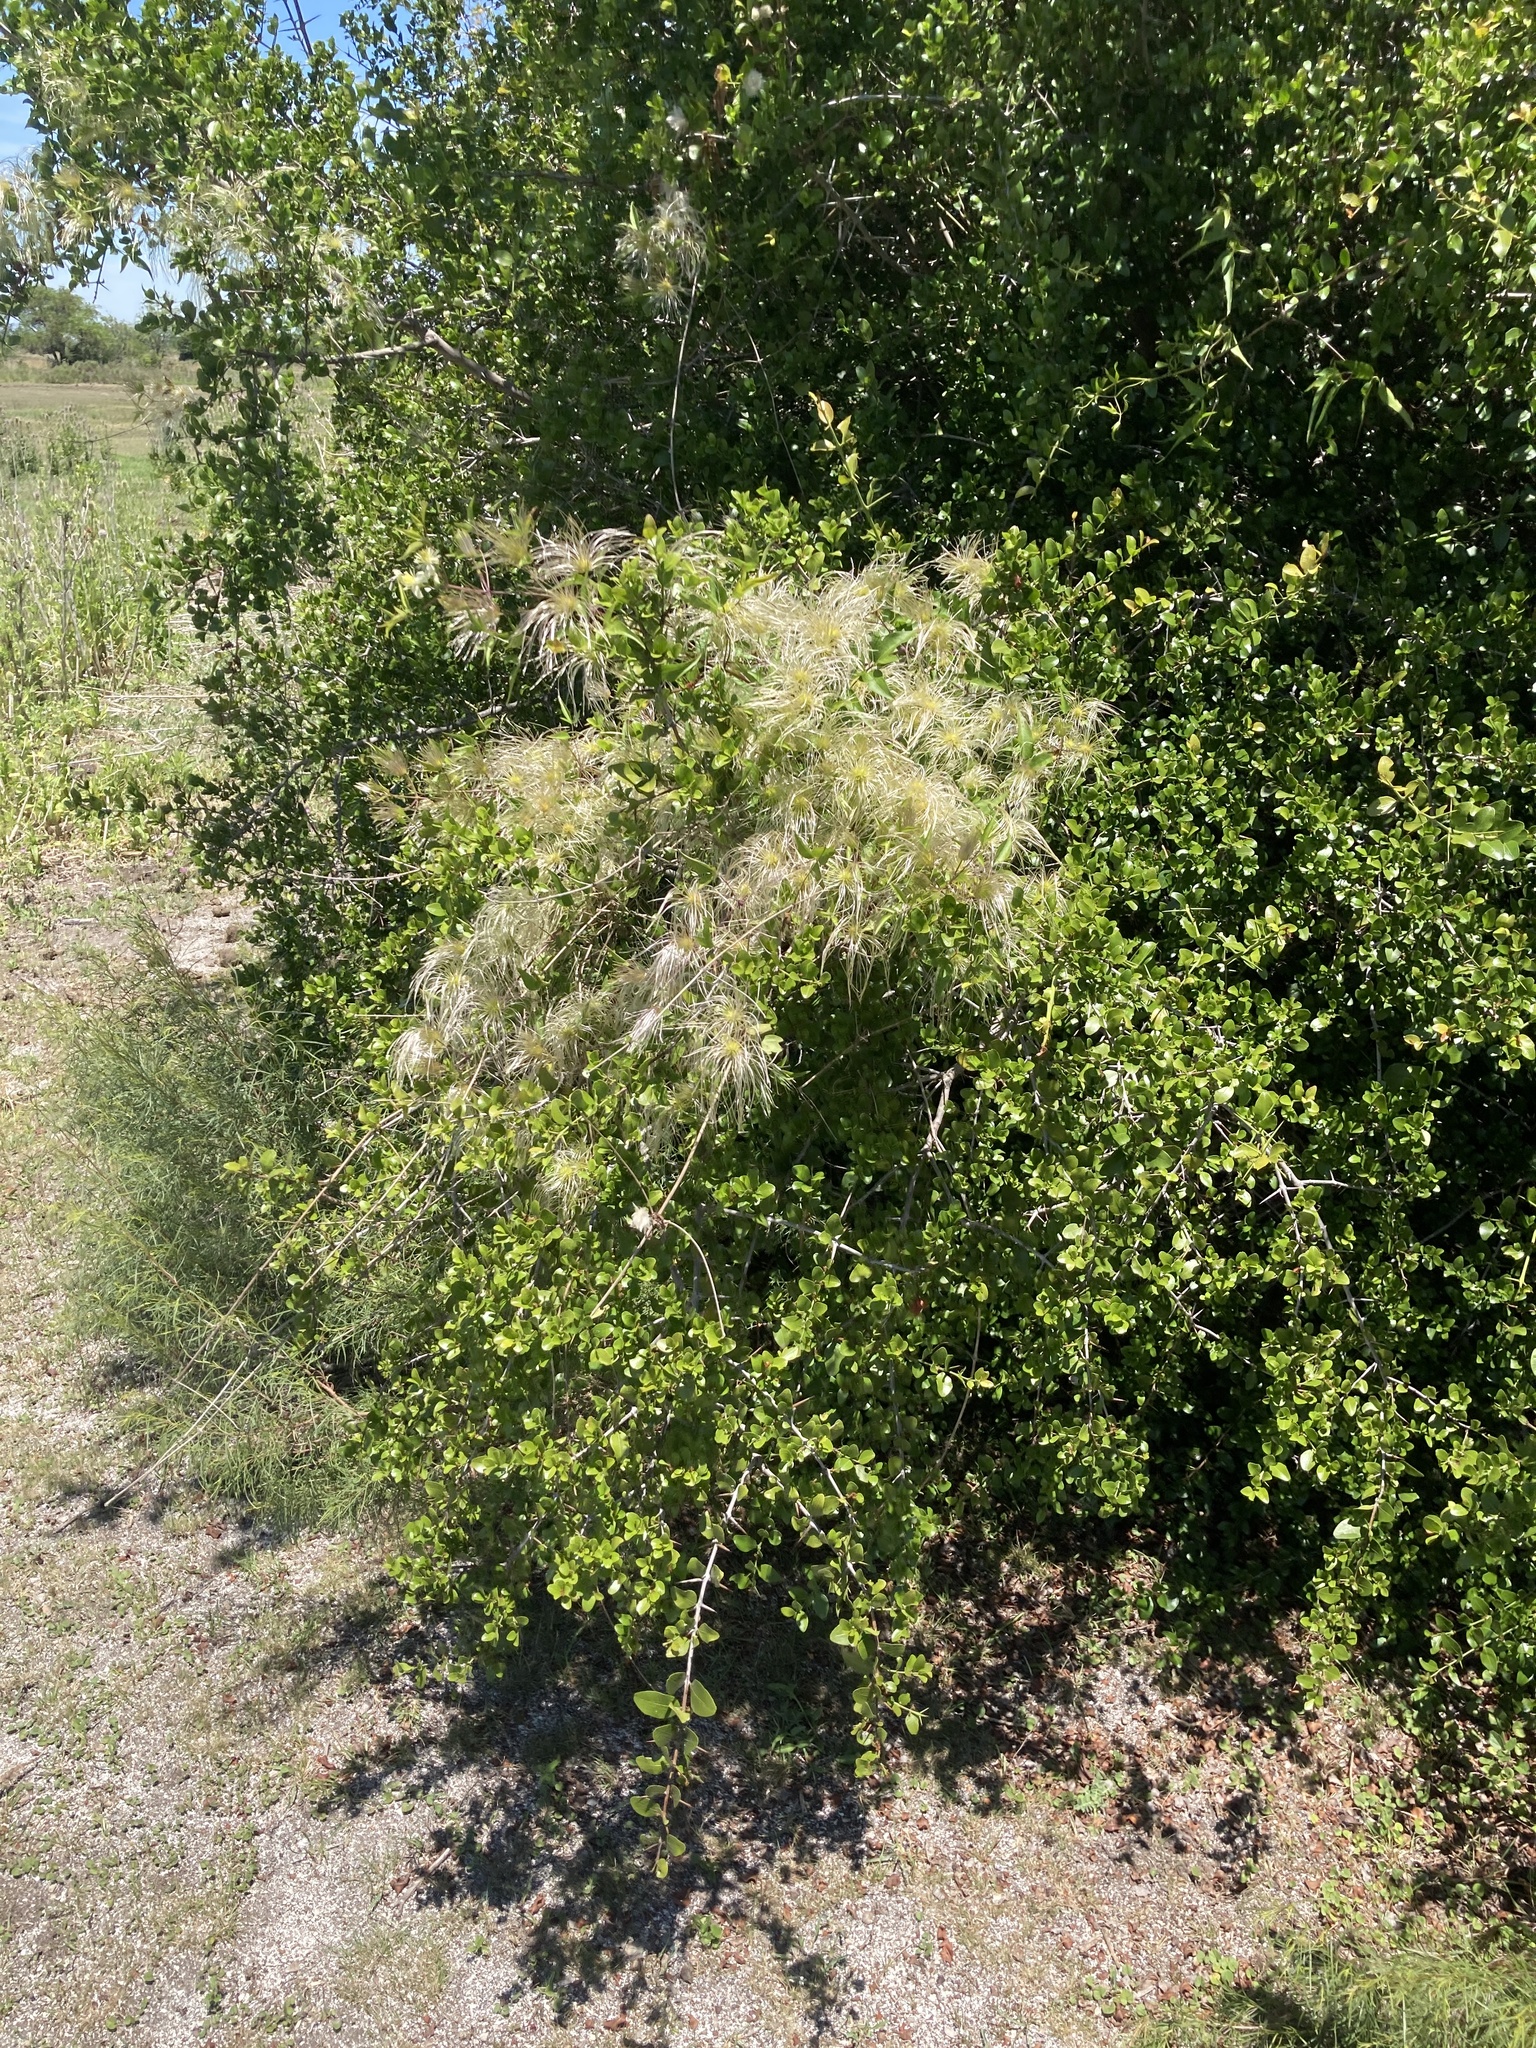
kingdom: Plantae
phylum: Tracheophyta
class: Magnoliopsida
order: Ranunculales
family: Ranunculaceae
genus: Clematis
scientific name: Clematis montevidensis
